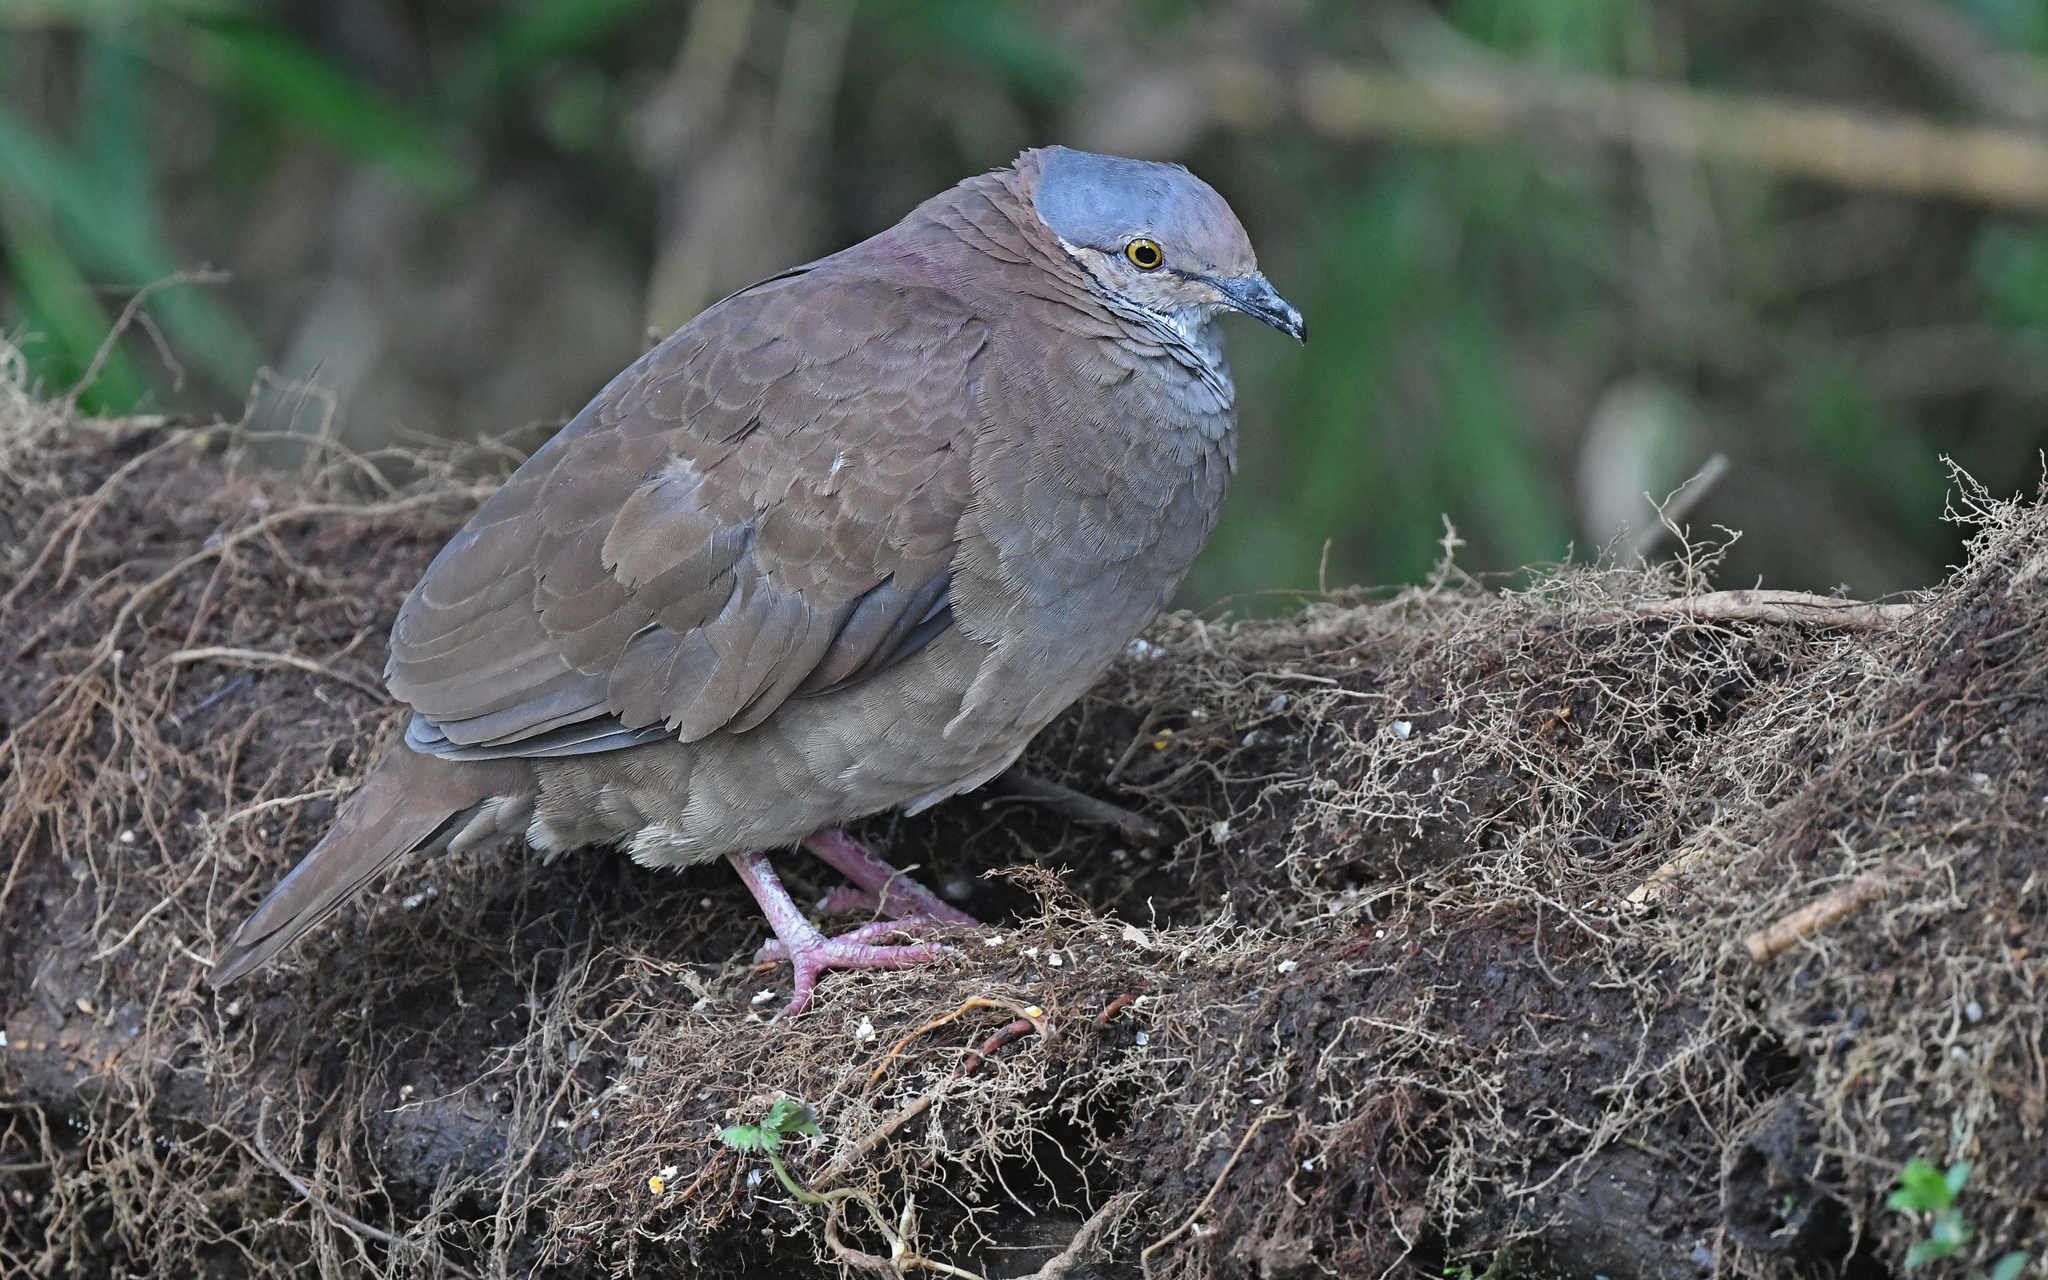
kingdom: Animalia
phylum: Chordata
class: Aves
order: Columbiformes
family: Columbidae
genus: Zentrygon
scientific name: Zentrygon frenata
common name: White-throated quail-dove
